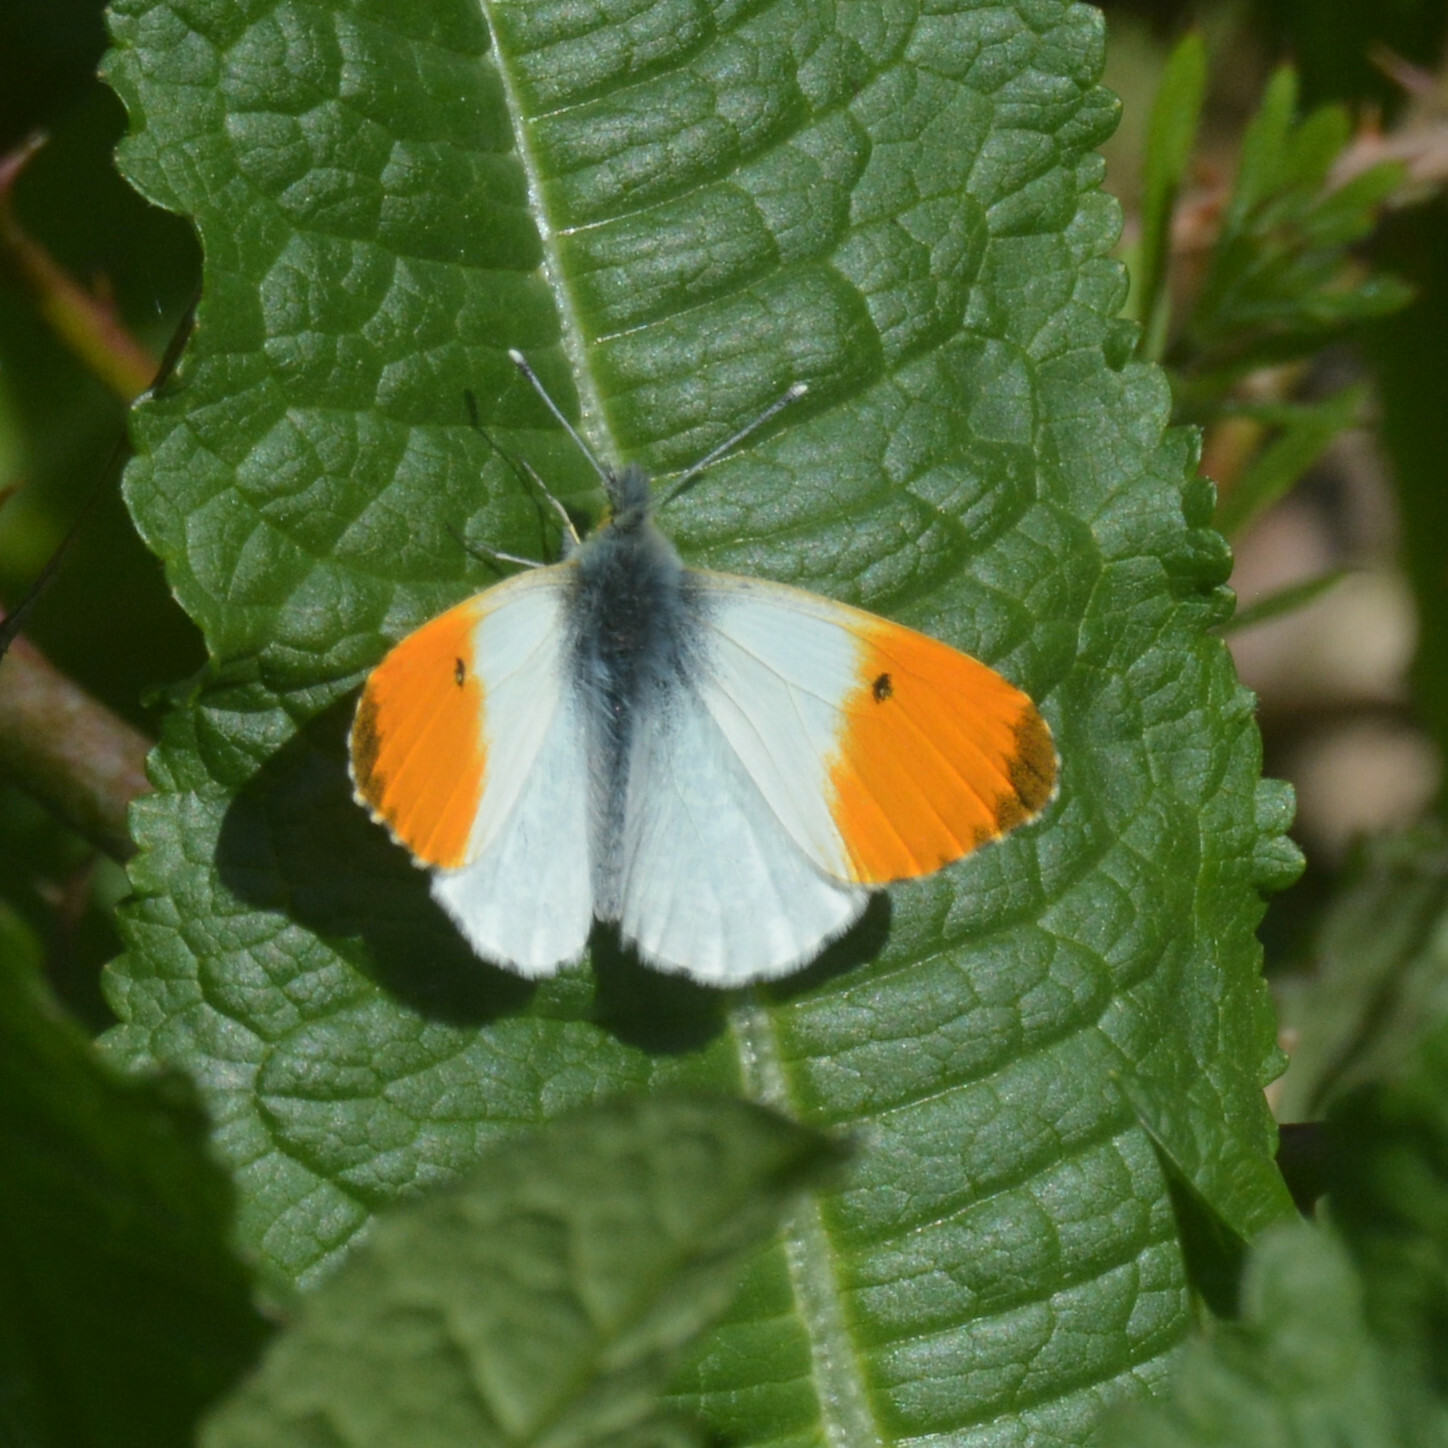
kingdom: Animalia
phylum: Arthropoda
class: Insecta
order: Lepidoptera
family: Pieridae
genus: Anthocharis
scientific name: Anthocharis cardamines
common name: Orange-tip
